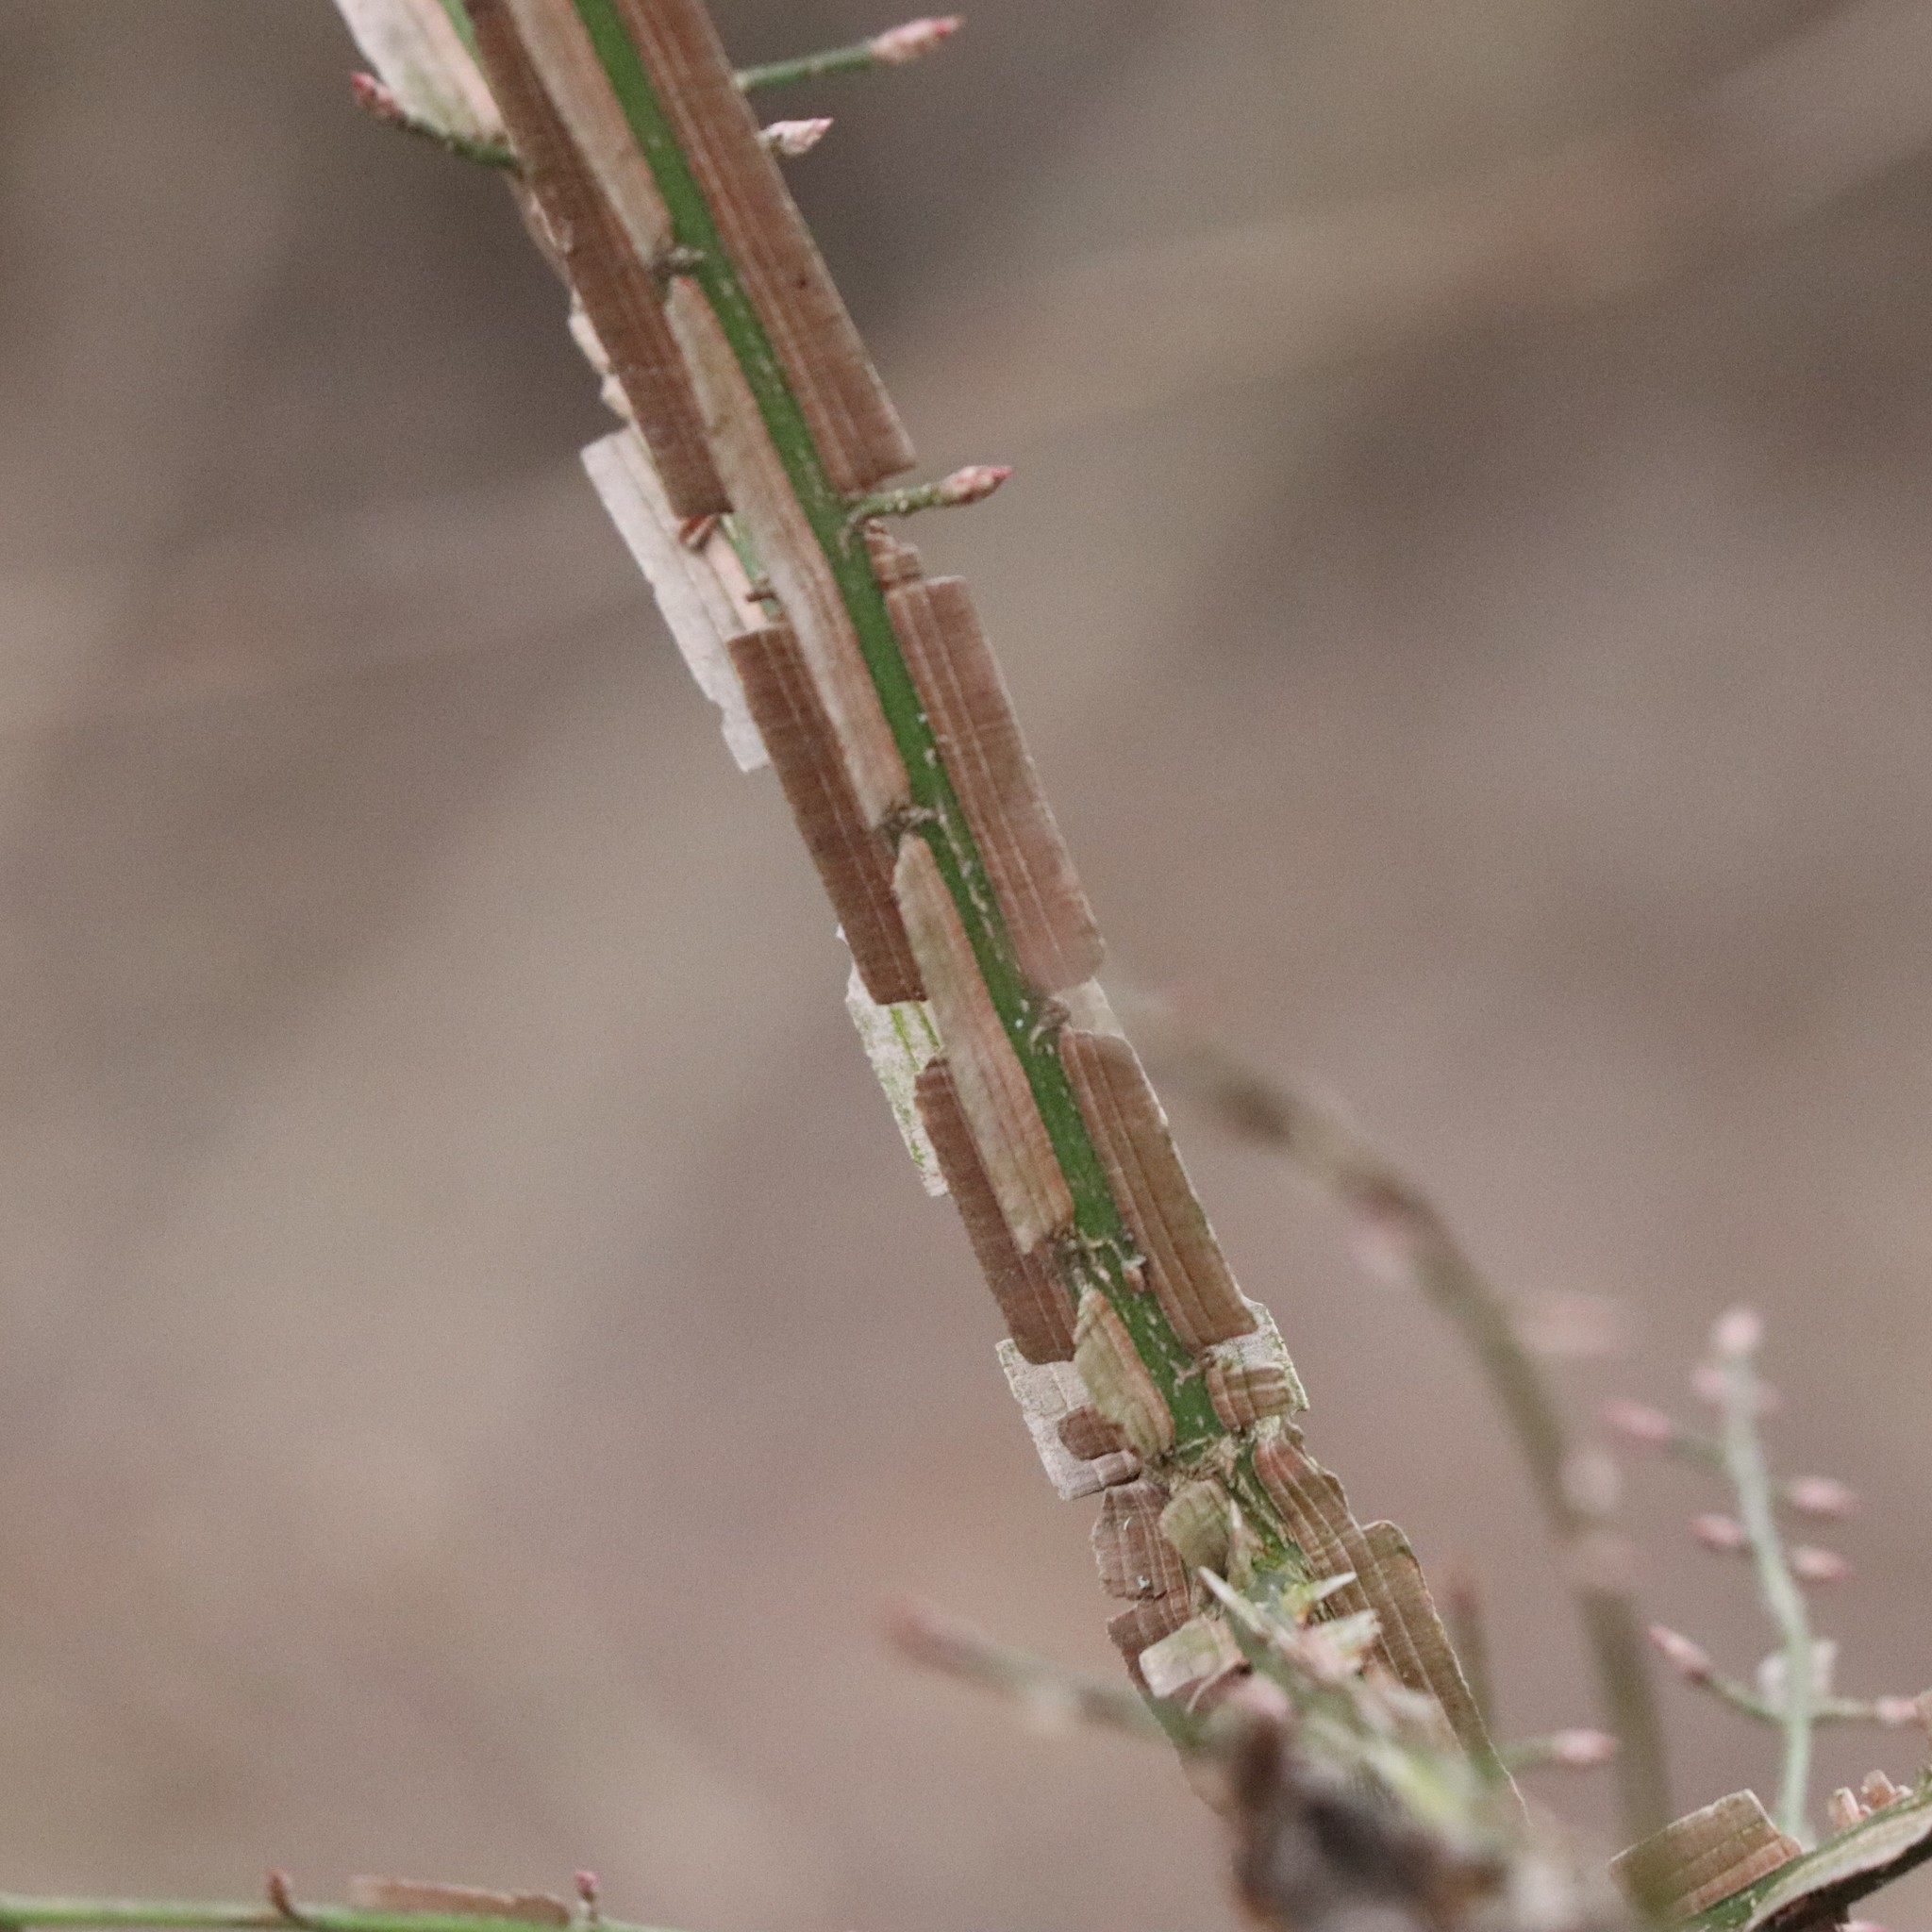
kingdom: Plantae
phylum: Tracheophyta
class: Magnoliopsida
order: Celastrales
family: Celastraceae
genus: Euonymus
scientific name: Euonymus alatus
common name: Winged euonymus
